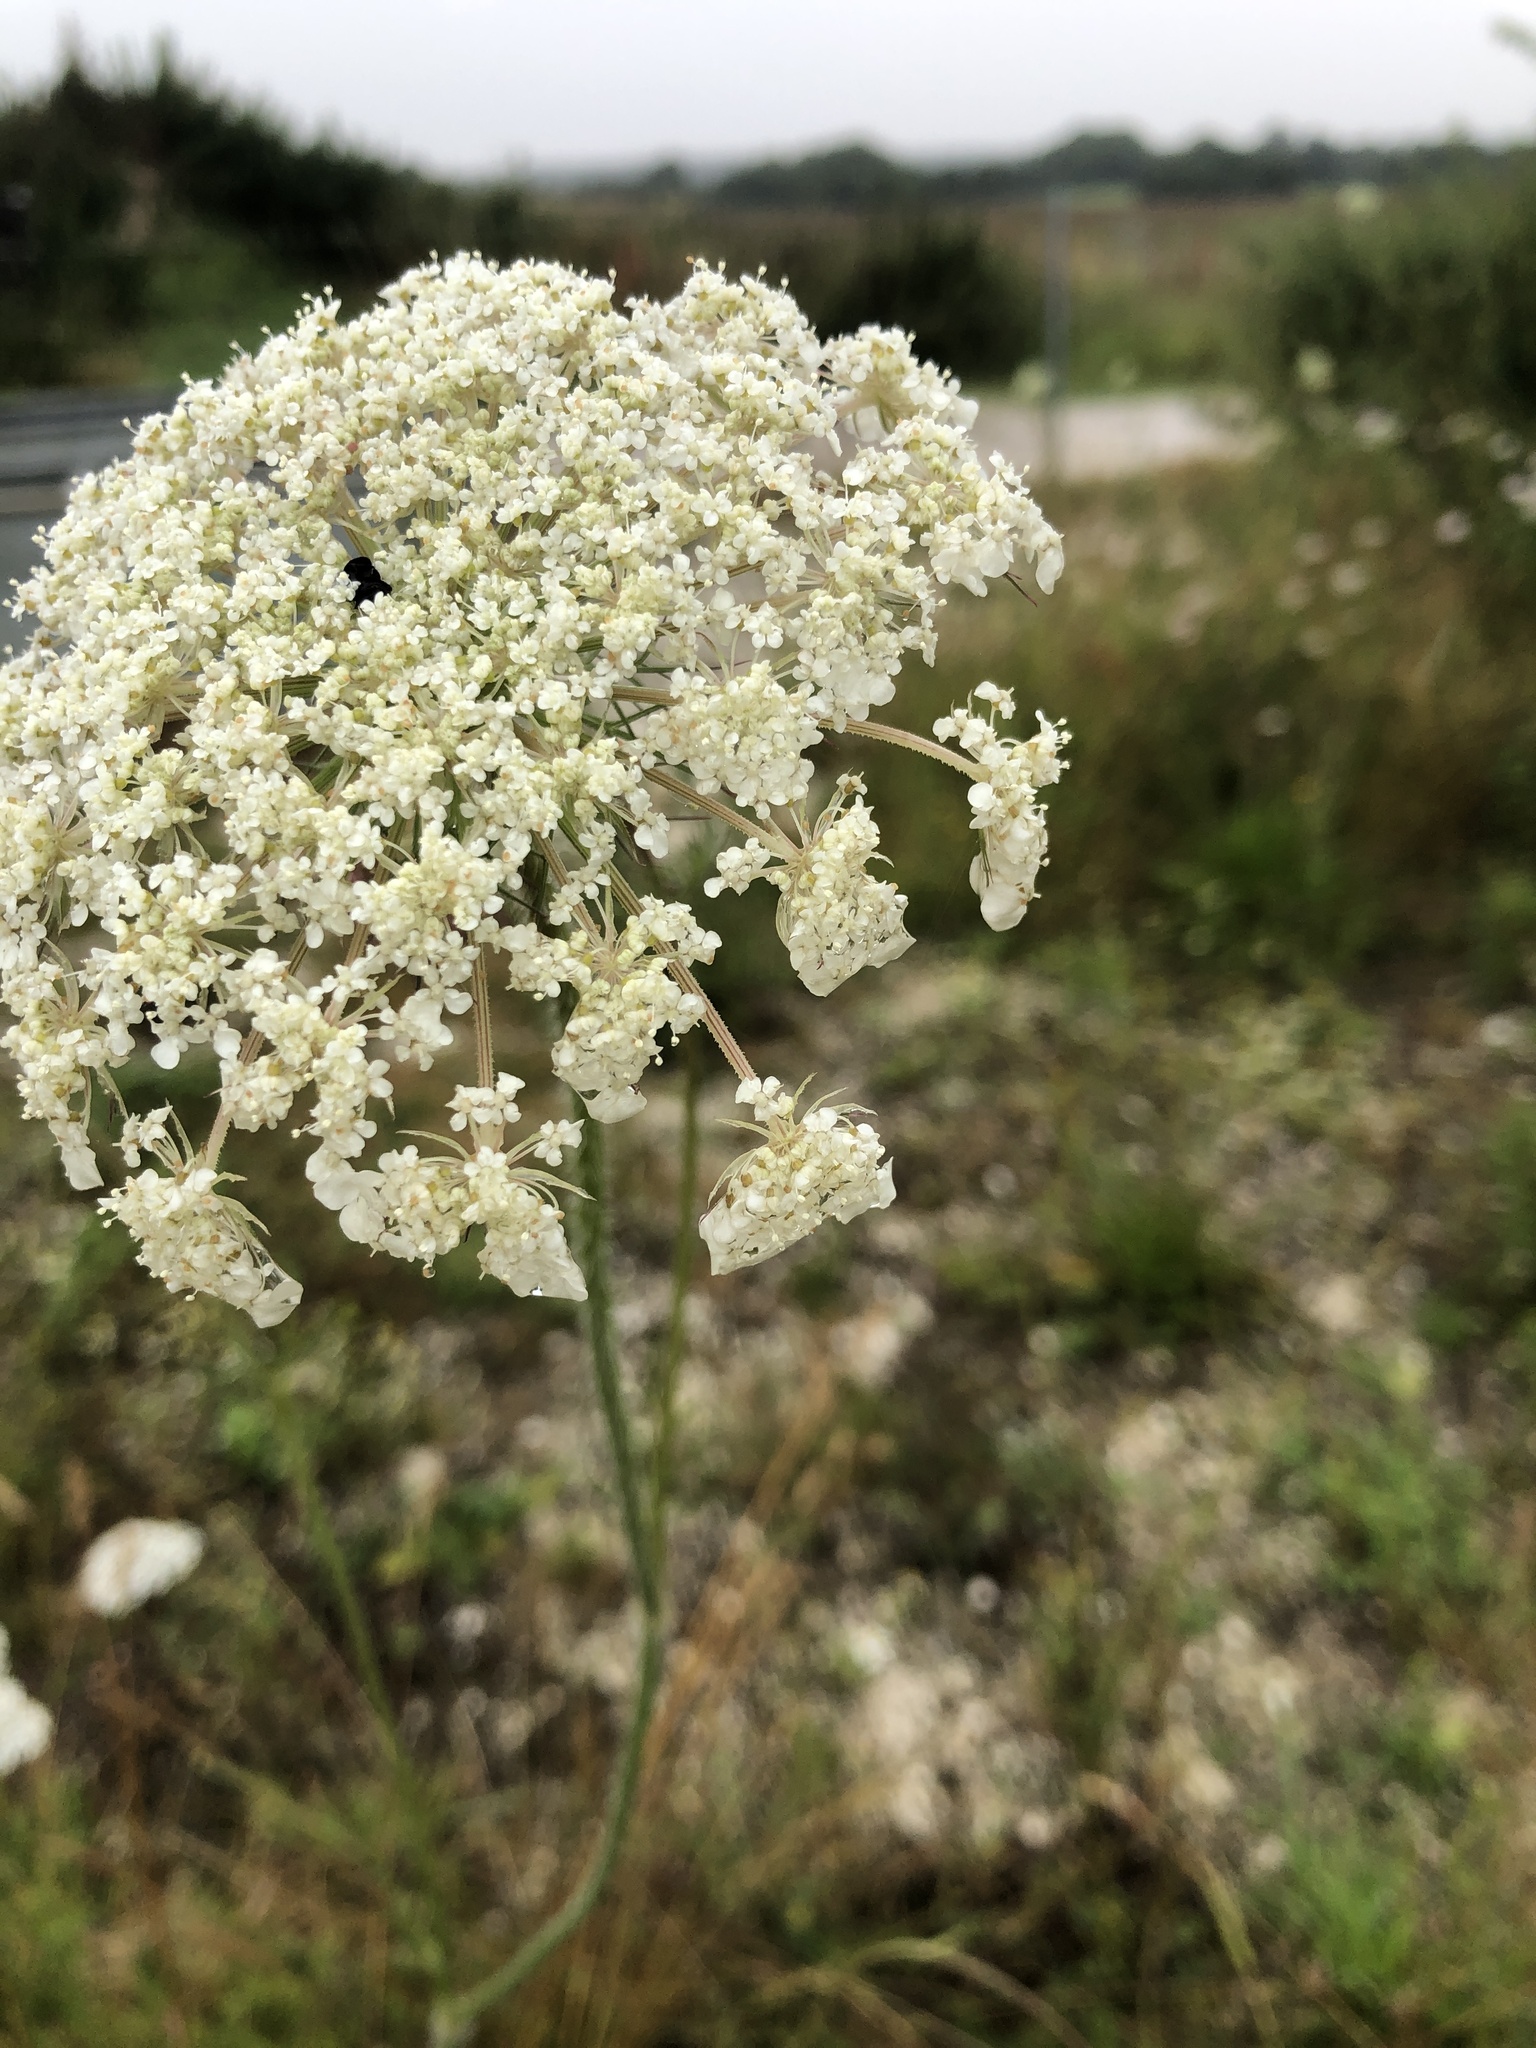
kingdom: Plantae
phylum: Tracheophyta
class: Magnoliopsida
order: Apiales
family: Apiaceae
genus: Daucus
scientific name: Daucus carota
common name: Wild carrot
